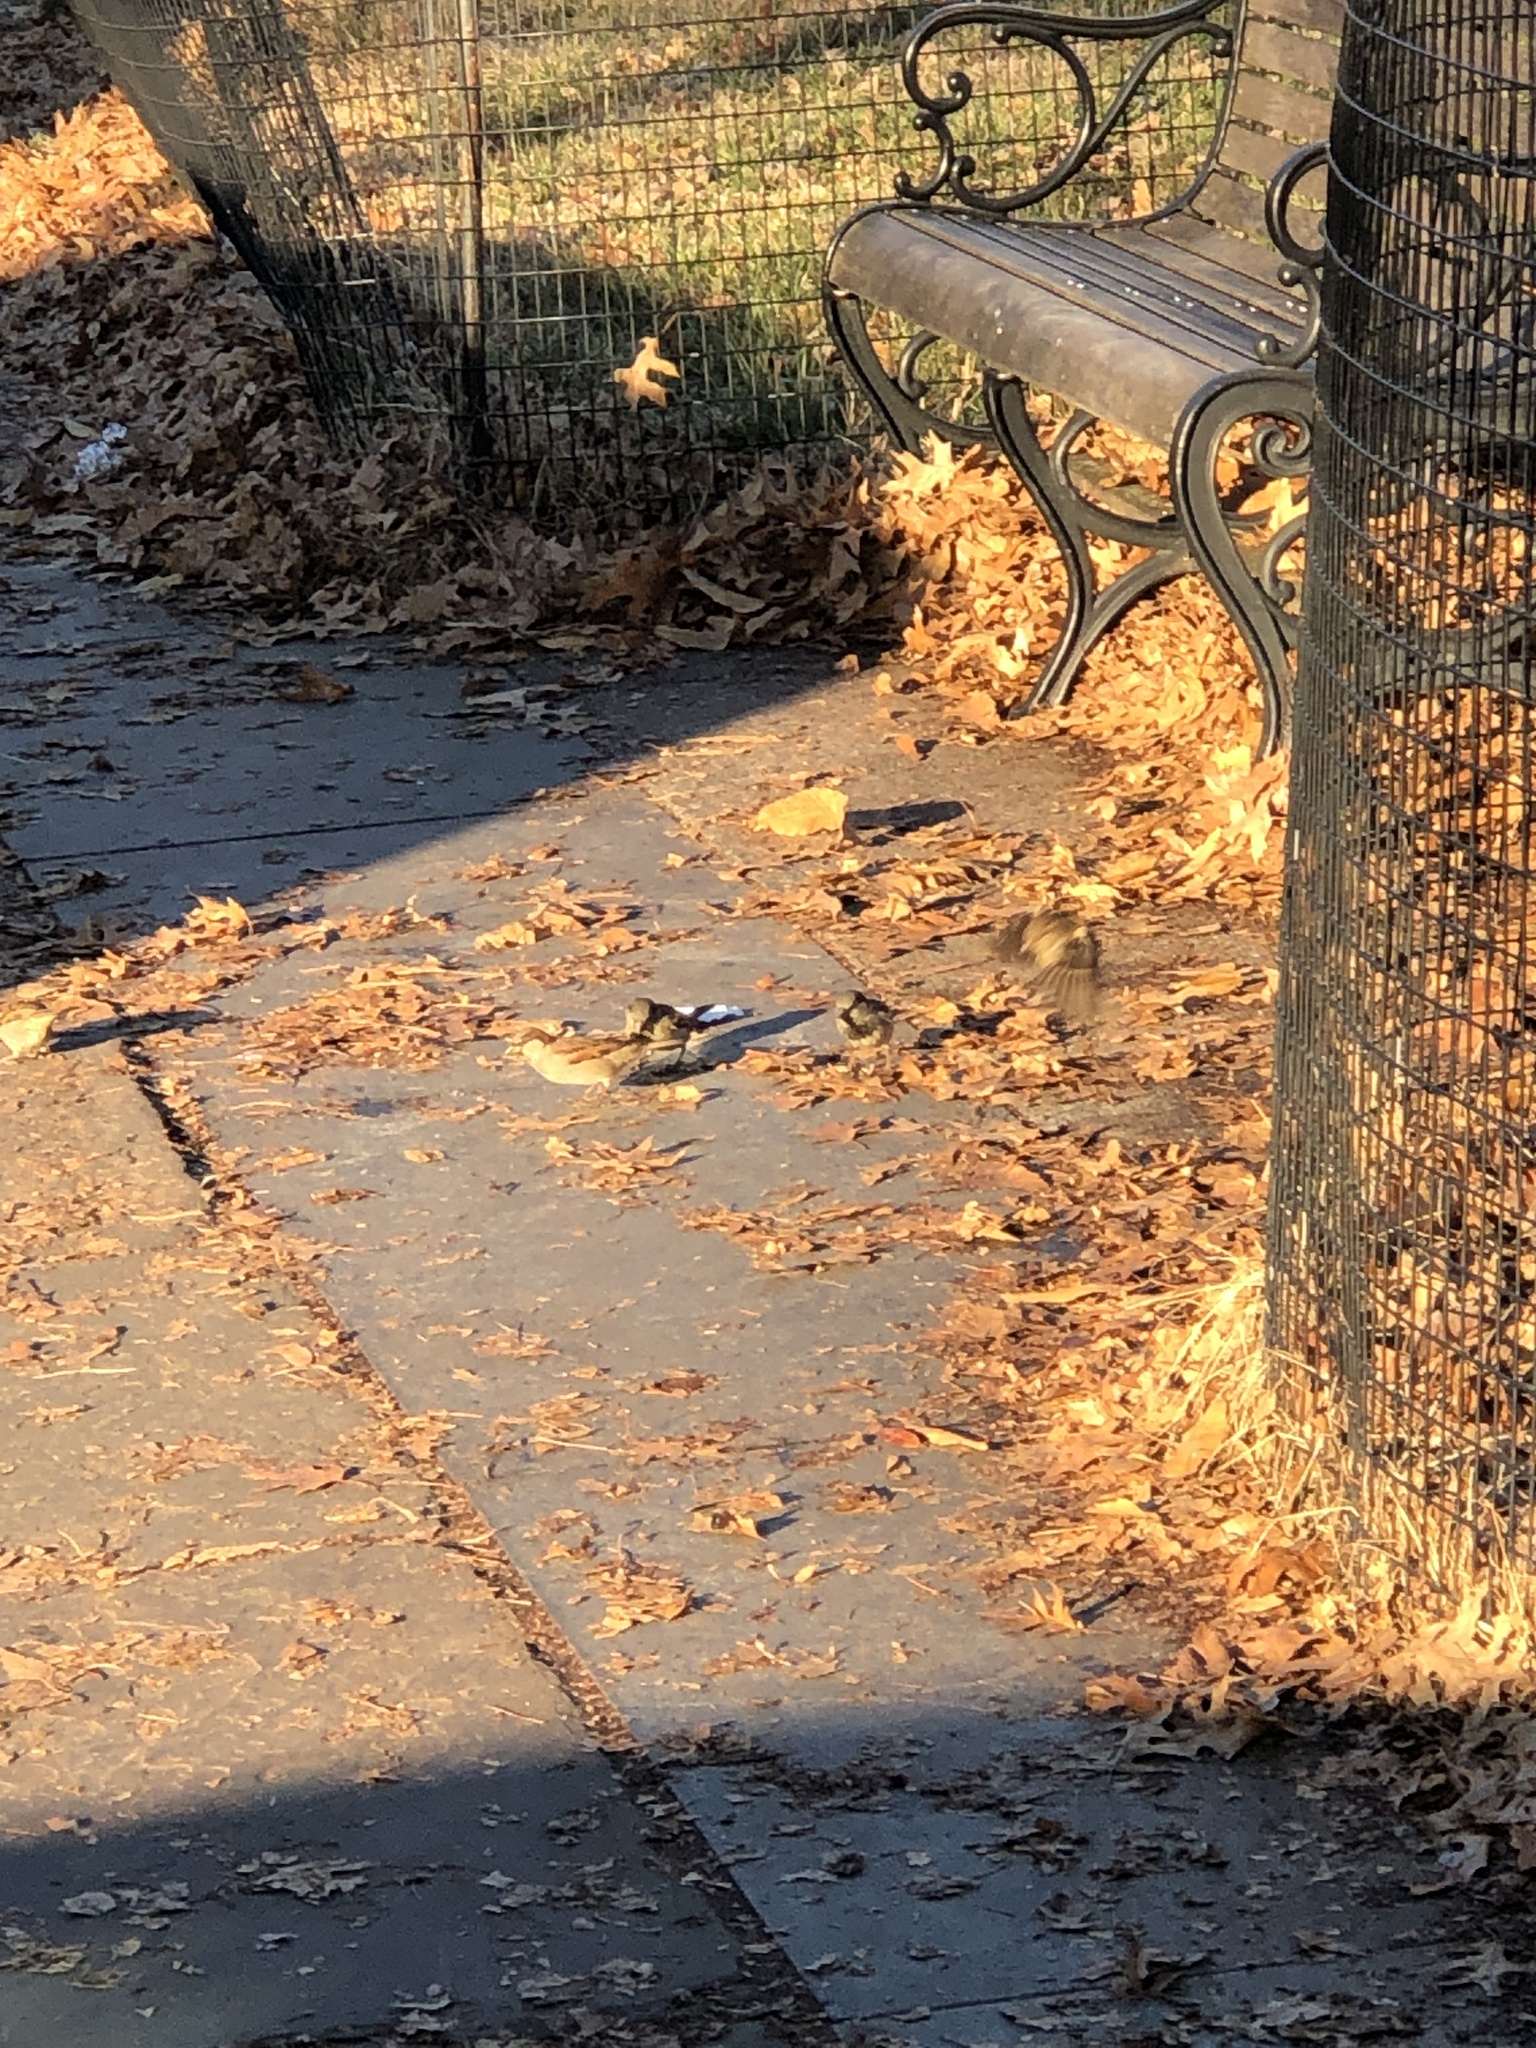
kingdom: Animalia
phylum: Chordata
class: Aves
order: Passeriformes
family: Passeridae
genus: Passer
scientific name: Passer domesticus
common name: House sparrow
